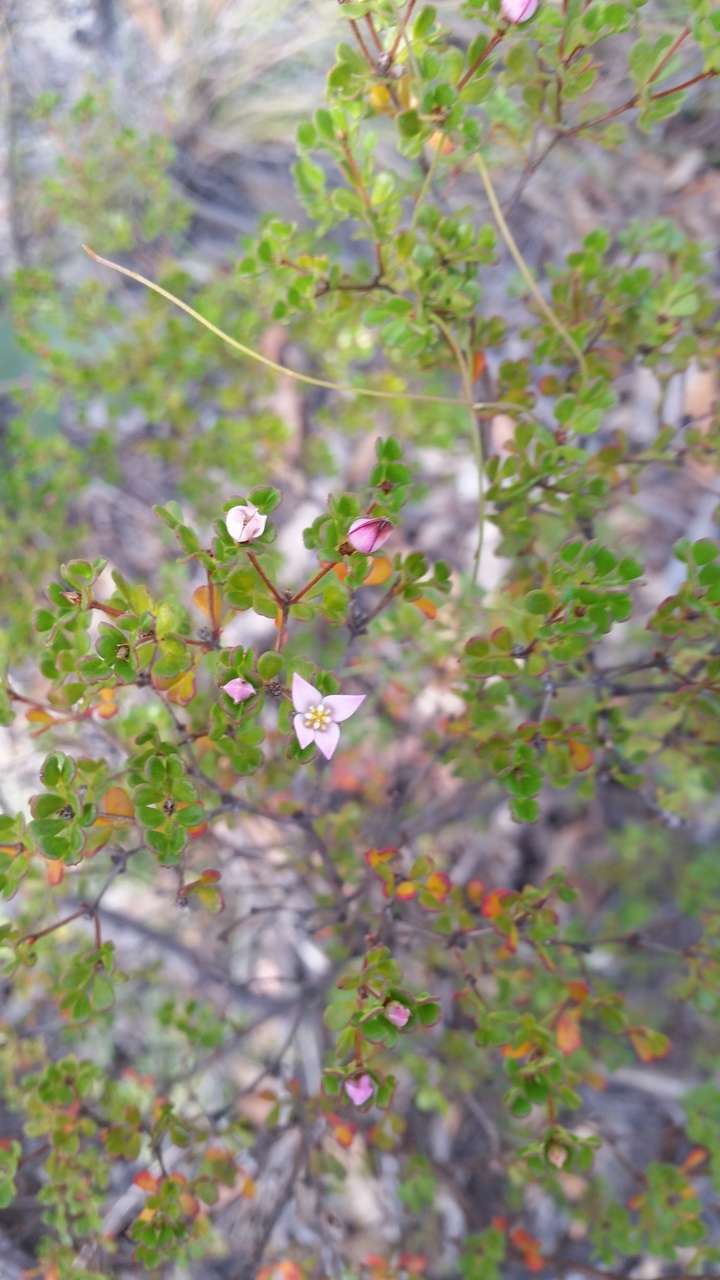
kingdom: Plantae
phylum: Tracheophyta
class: Magnoliopsida
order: Sapindales
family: Rutaceae
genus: Boronia
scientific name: Boronia algida
